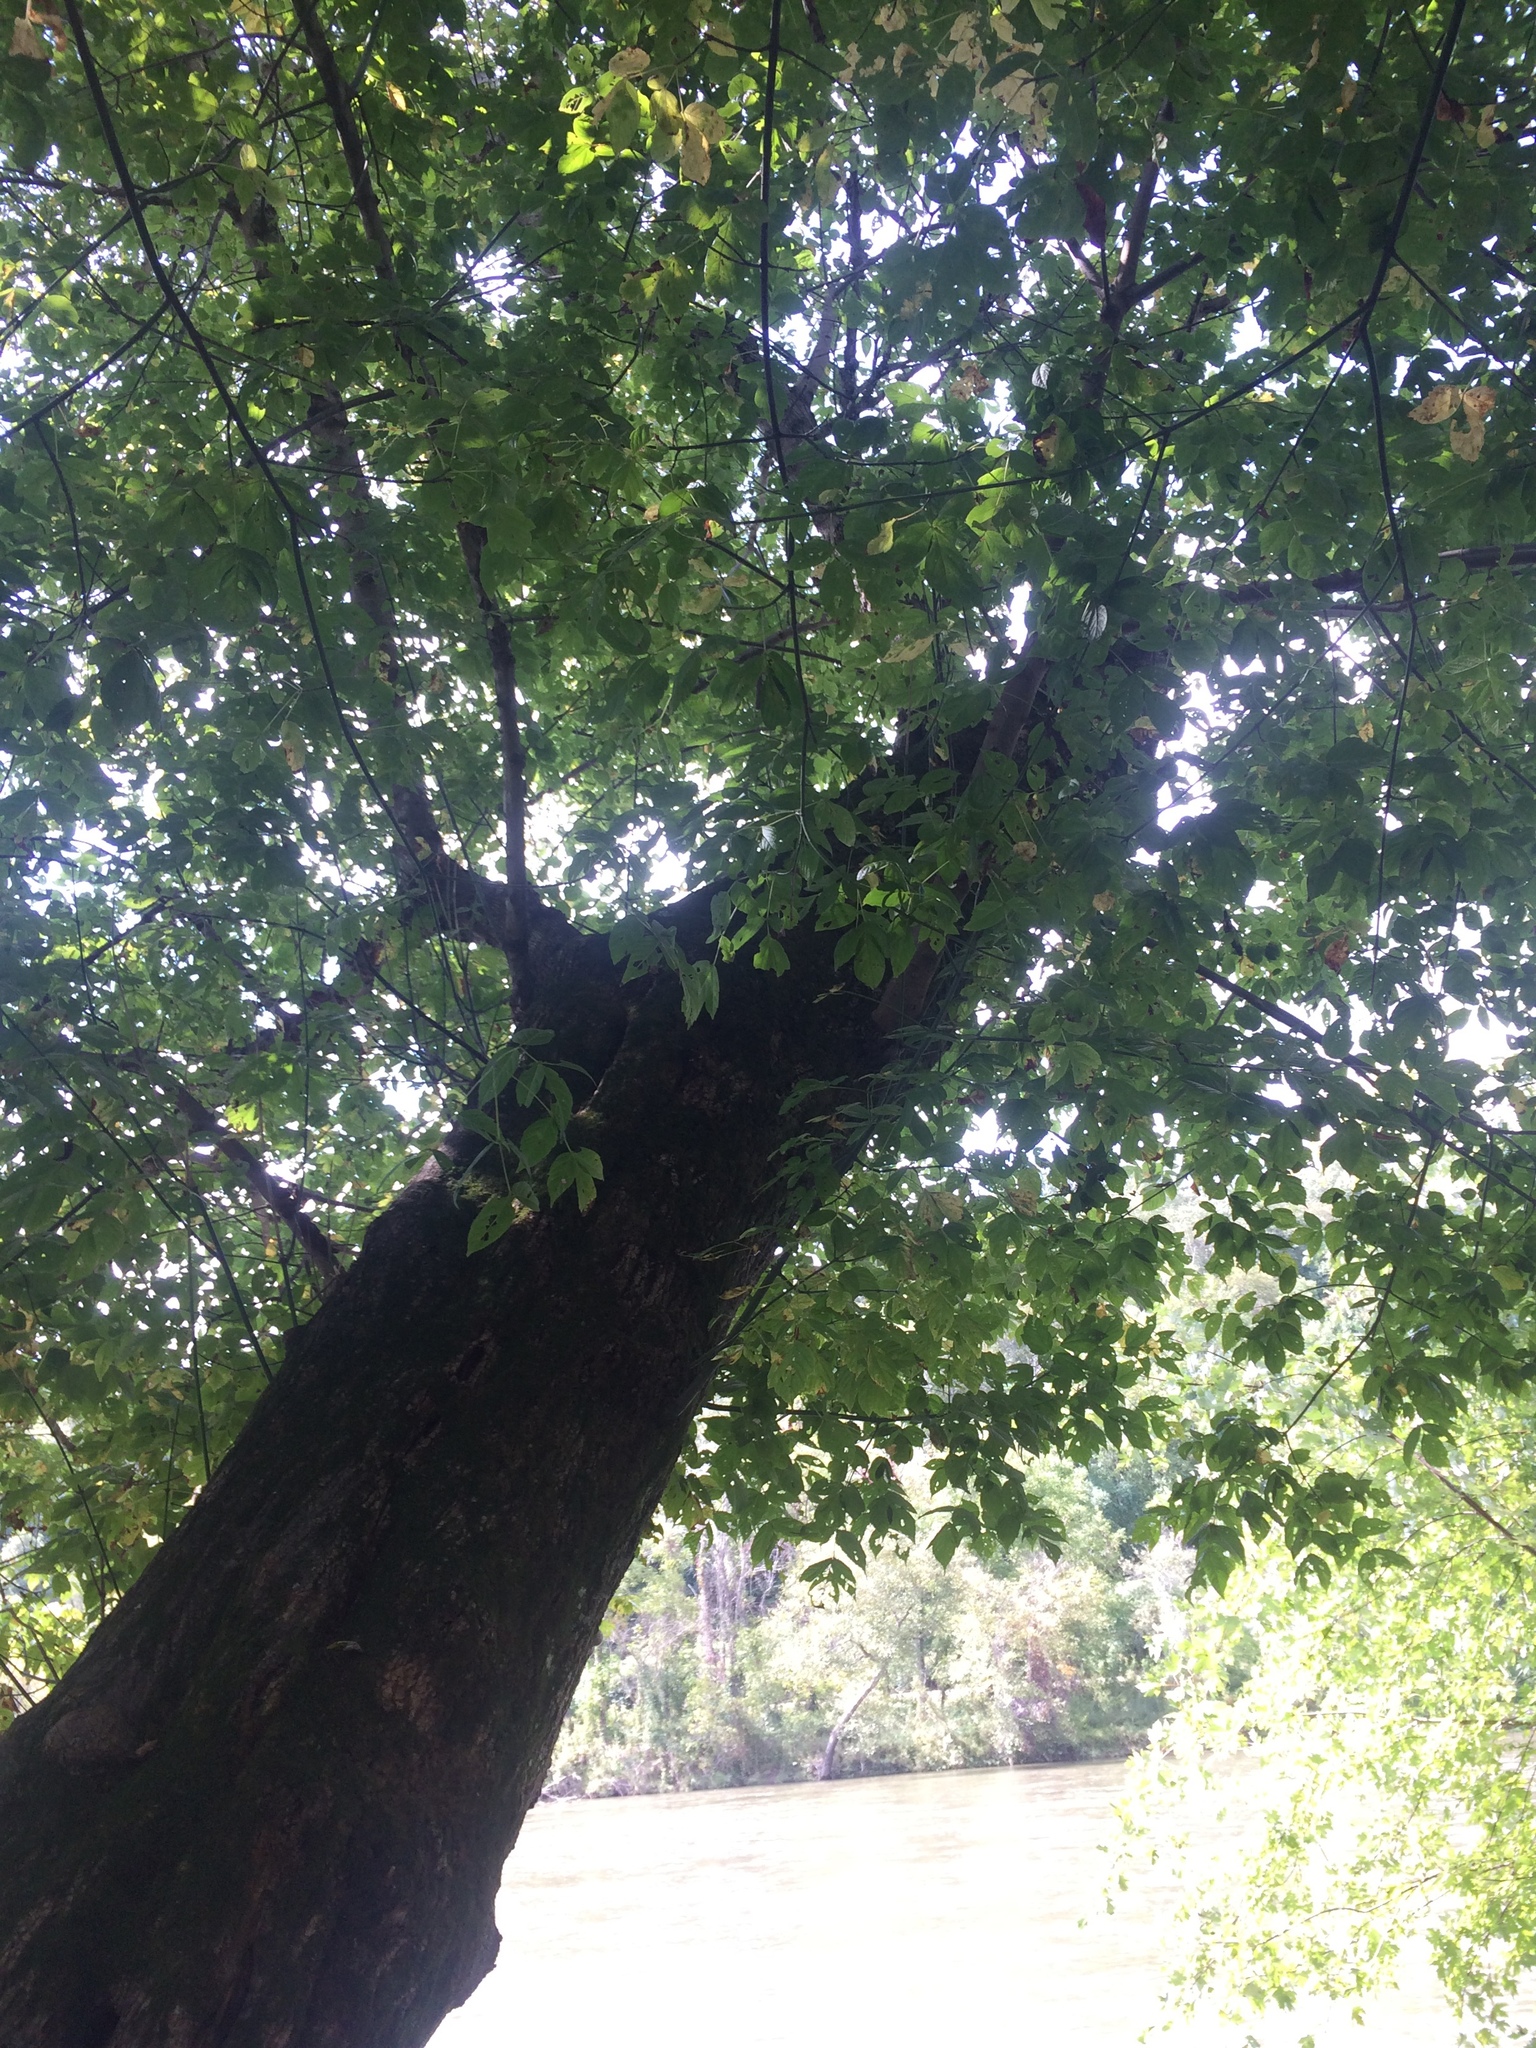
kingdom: Plantae
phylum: Tracheophyta
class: Magnoliopsida
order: Sapindales
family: Sapindaceae
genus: Acer
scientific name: Acer negundo
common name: Ashleaf maple
